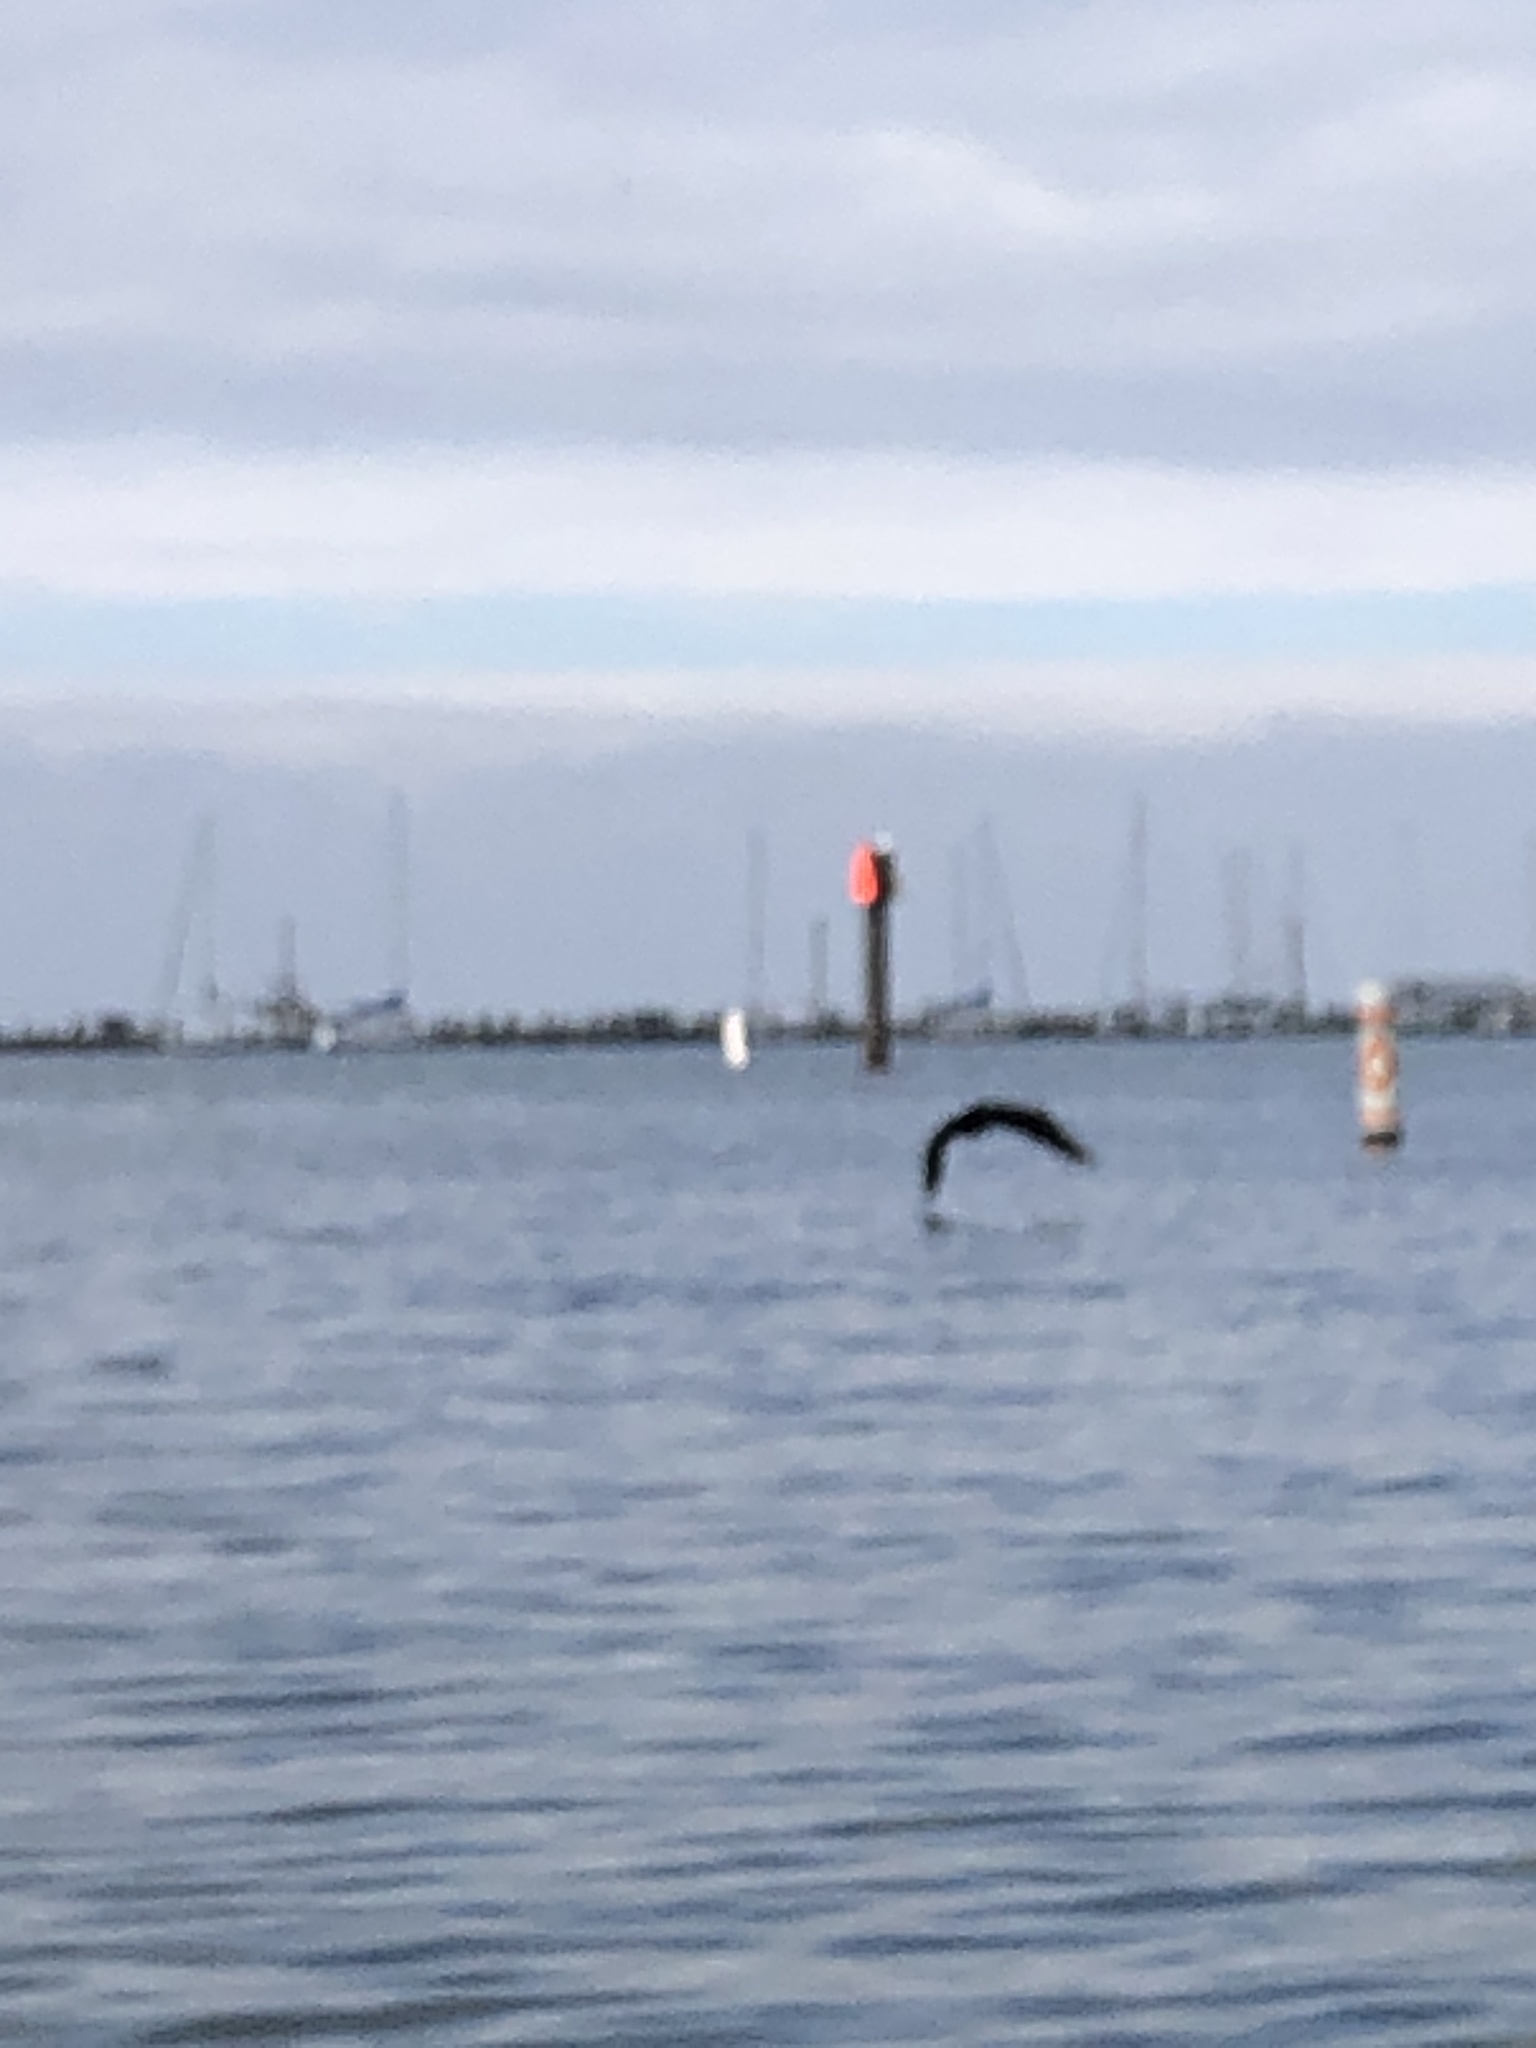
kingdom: Animalia
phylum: Chordata
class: Aves
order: Suliformes
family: Phalacrocoracidae
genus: Phalacrocorax
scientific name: Phalacrocorax auritus
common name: Double-crested cormorant
